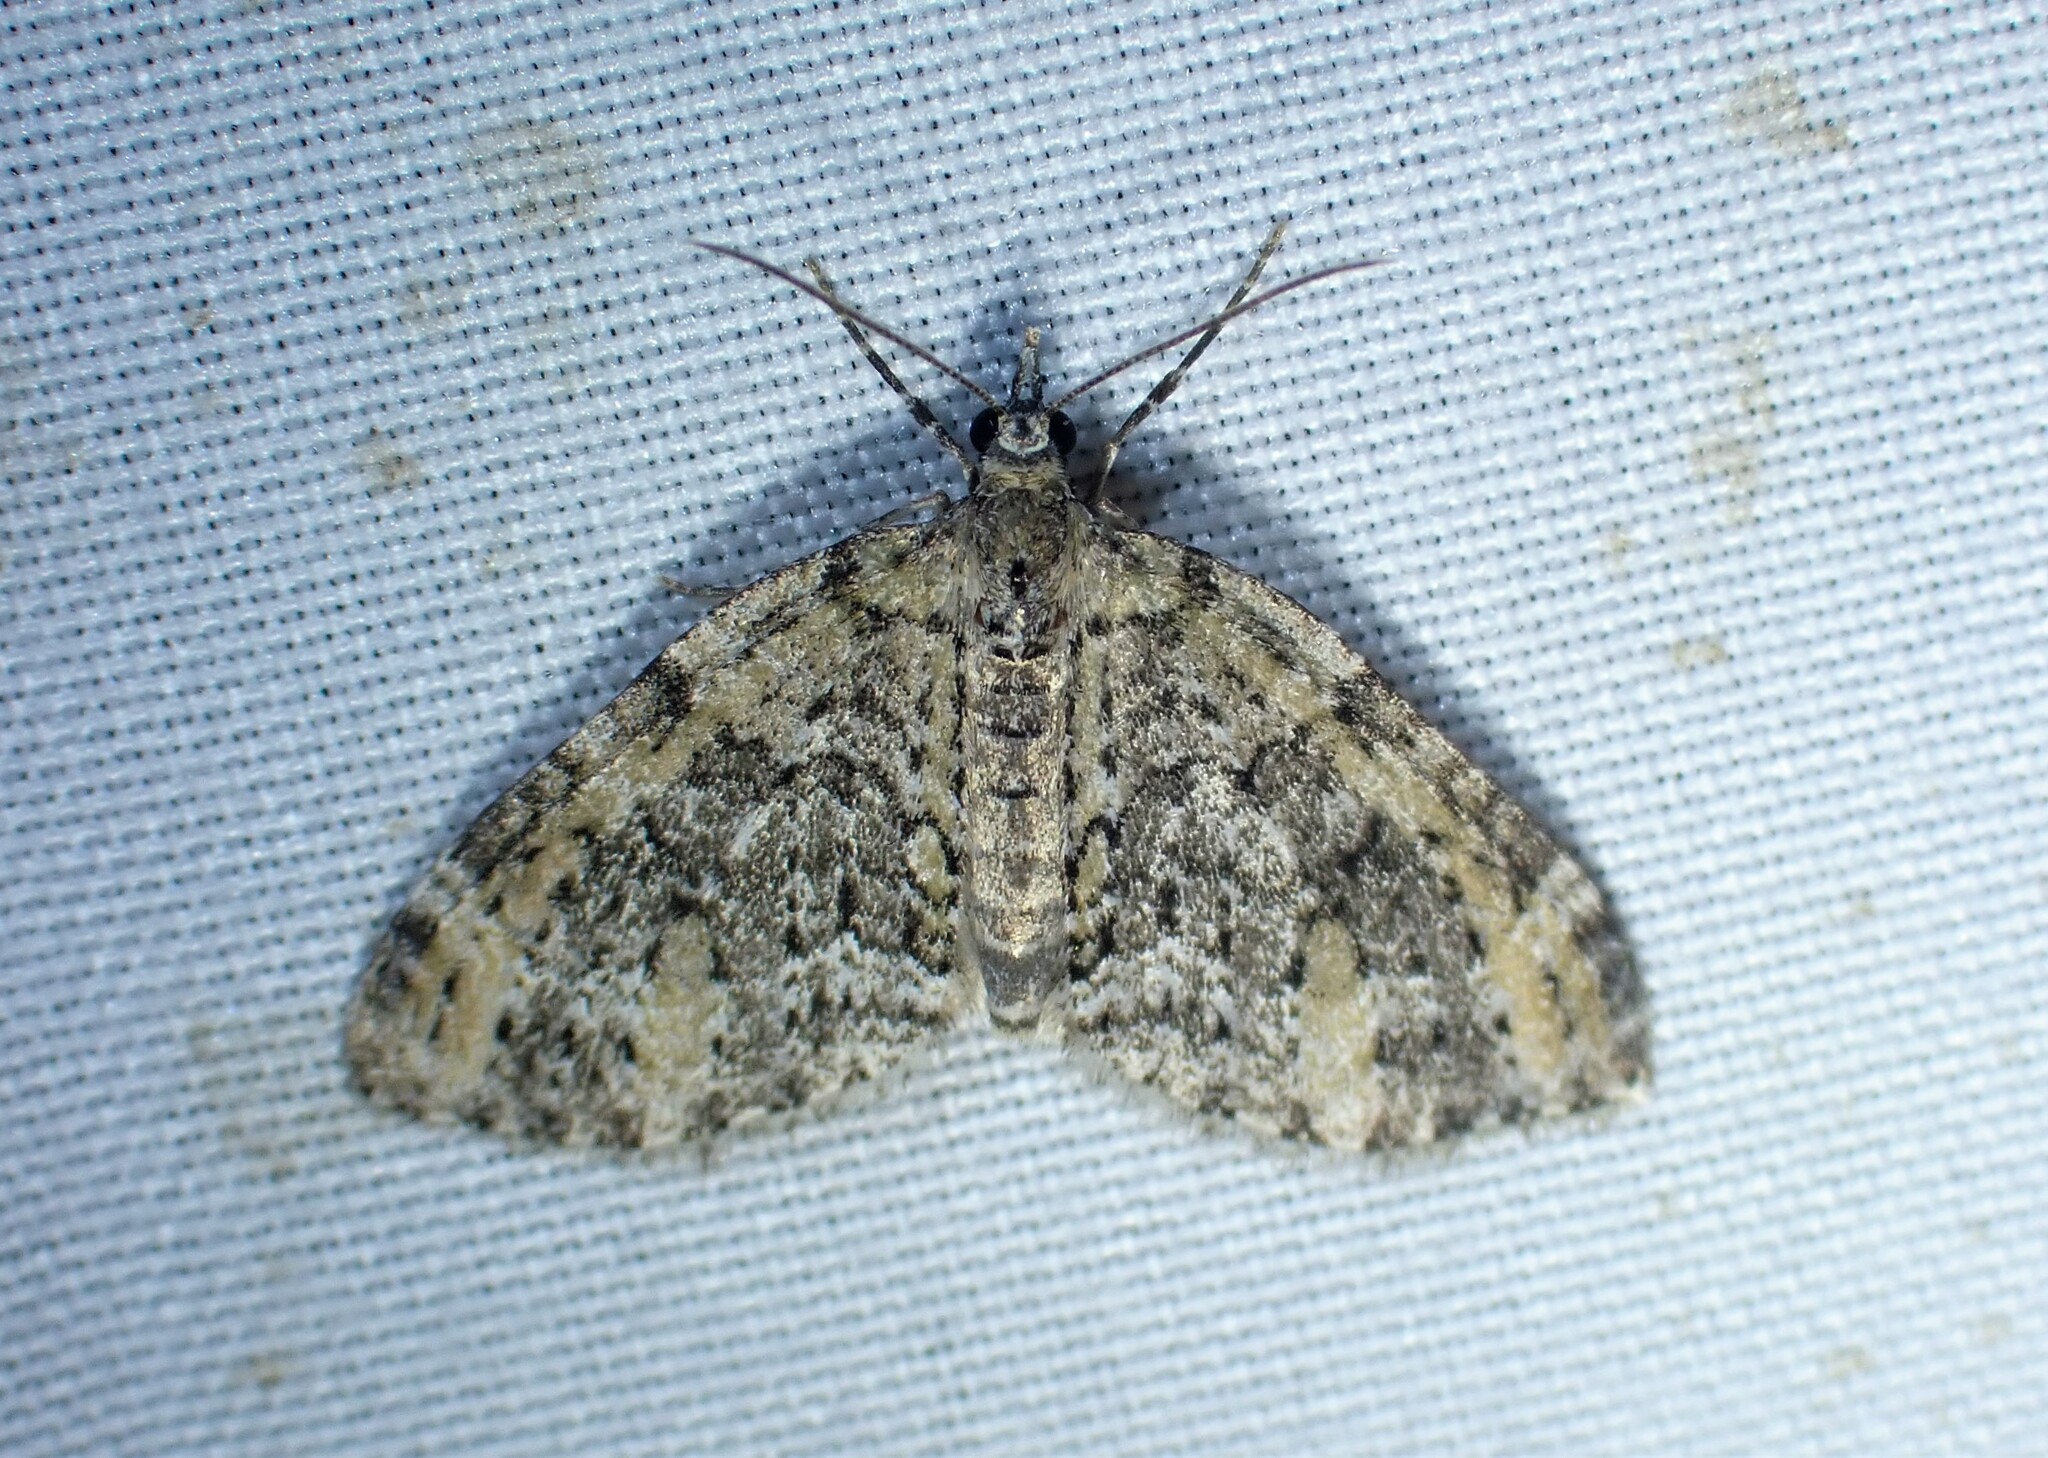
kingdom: Animalia
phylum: Arthropoda
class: Insecta
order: Lepidoptera
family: Geometridae
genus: Acasis
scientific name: Acasis viridata
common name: Olive-and-black carpet moth
